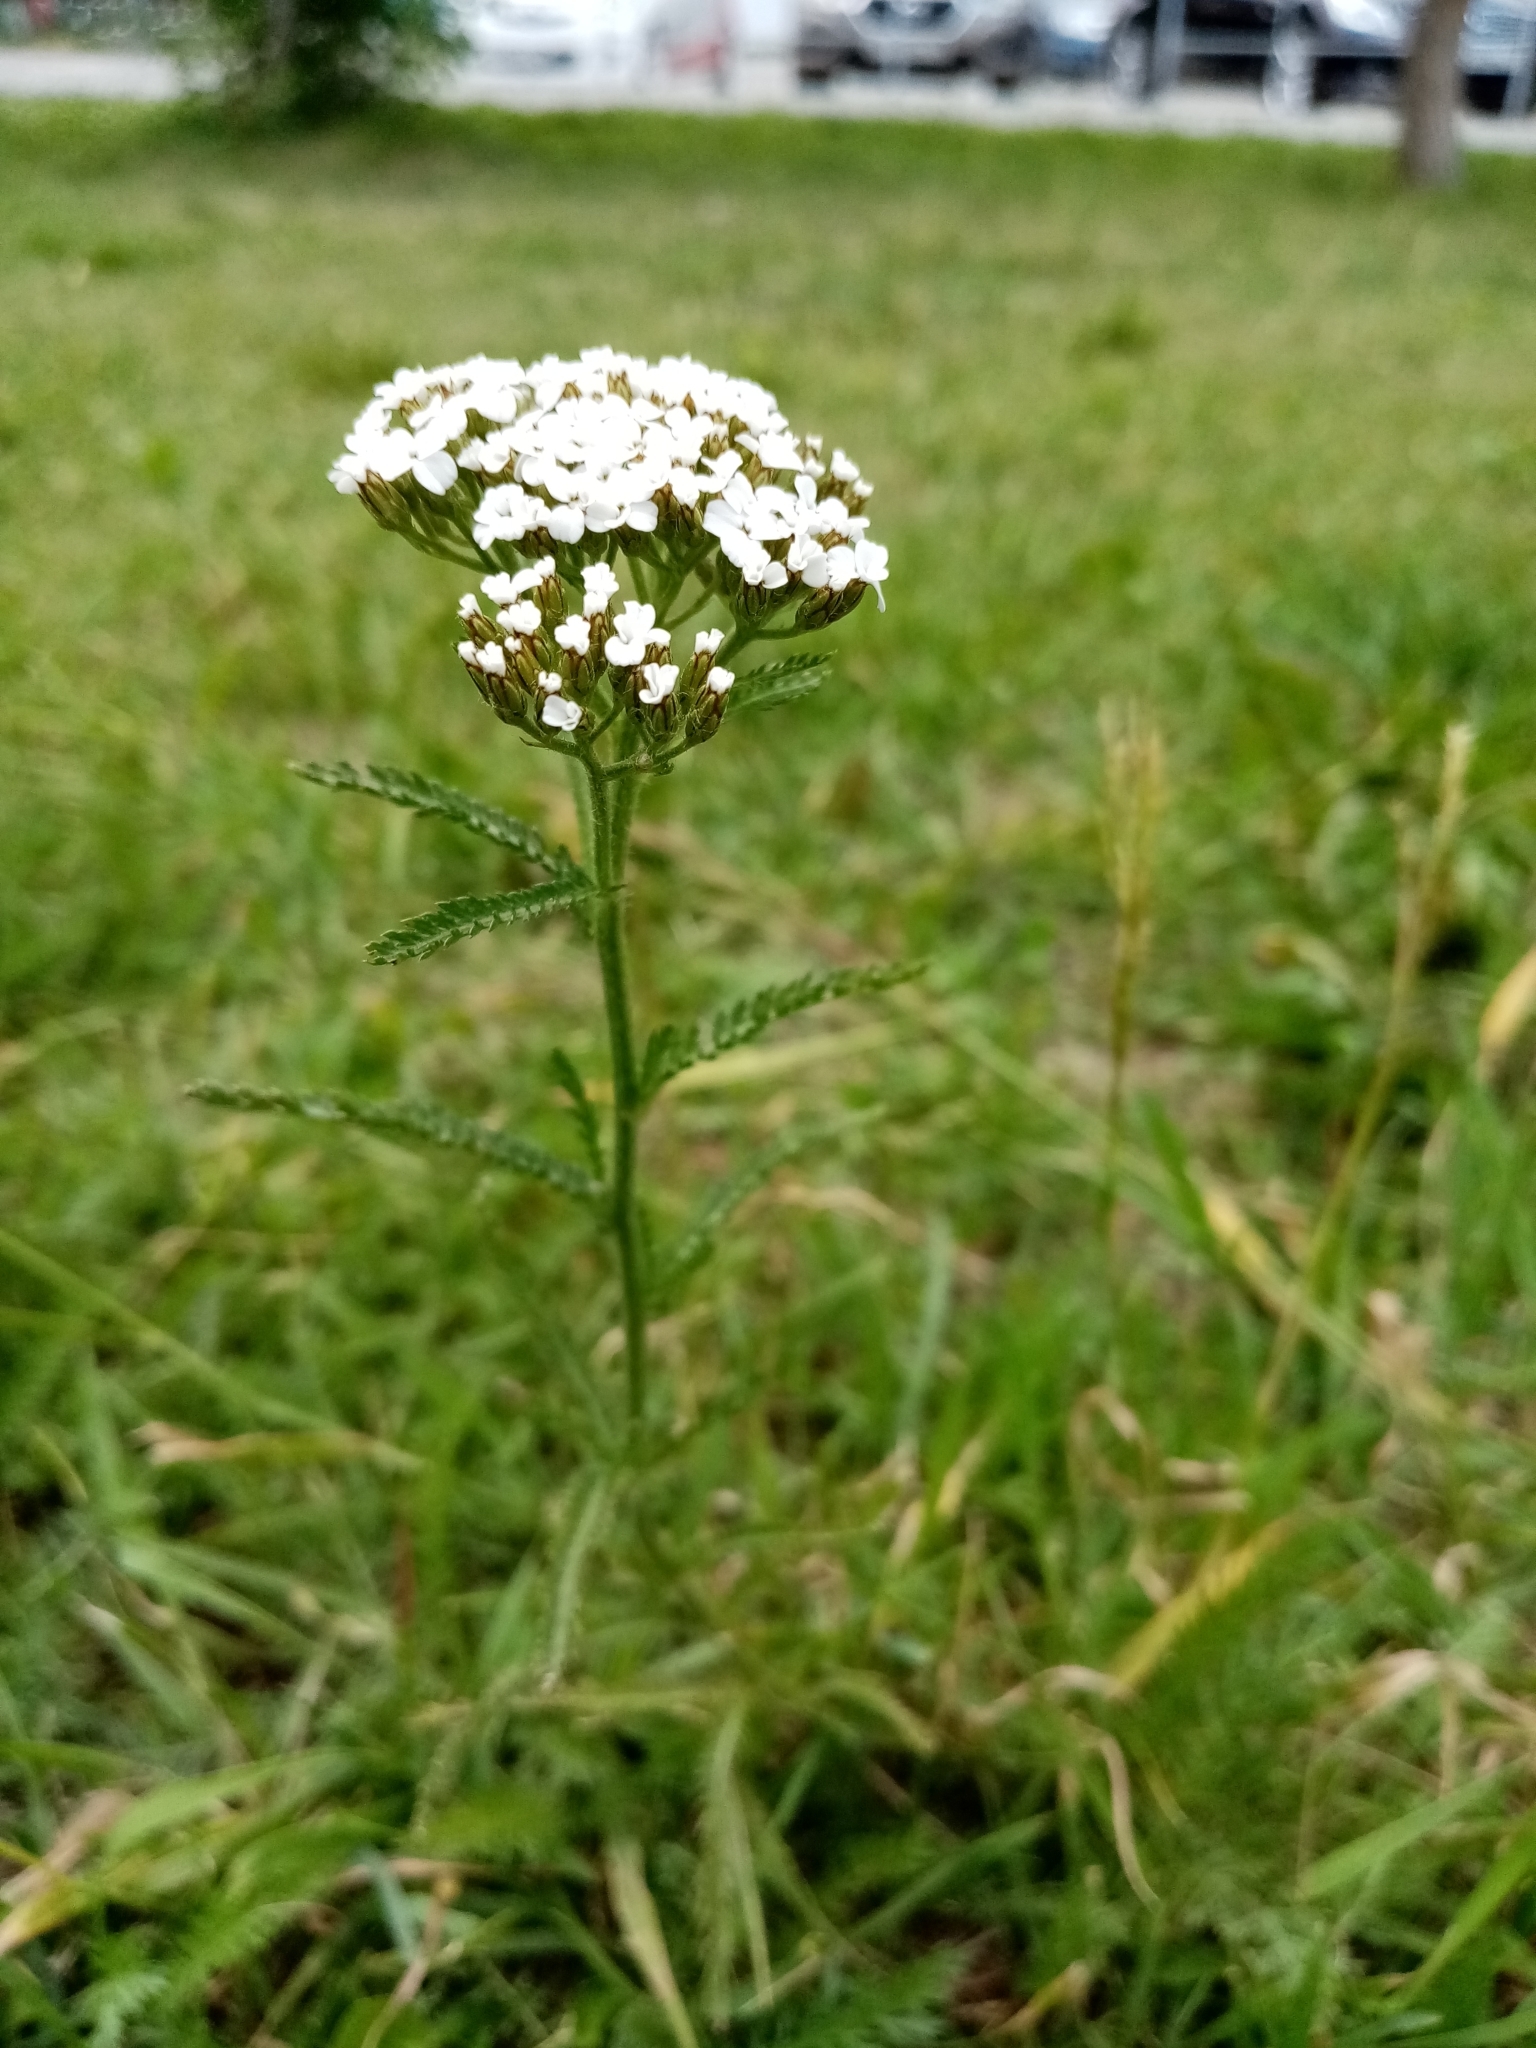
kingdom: Plantae
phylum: Tracheophyta
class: Magnoliopsida
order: Asterales
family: Asteraceae
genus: Achillea
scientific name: Achillea millefolium
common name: Yarrow
